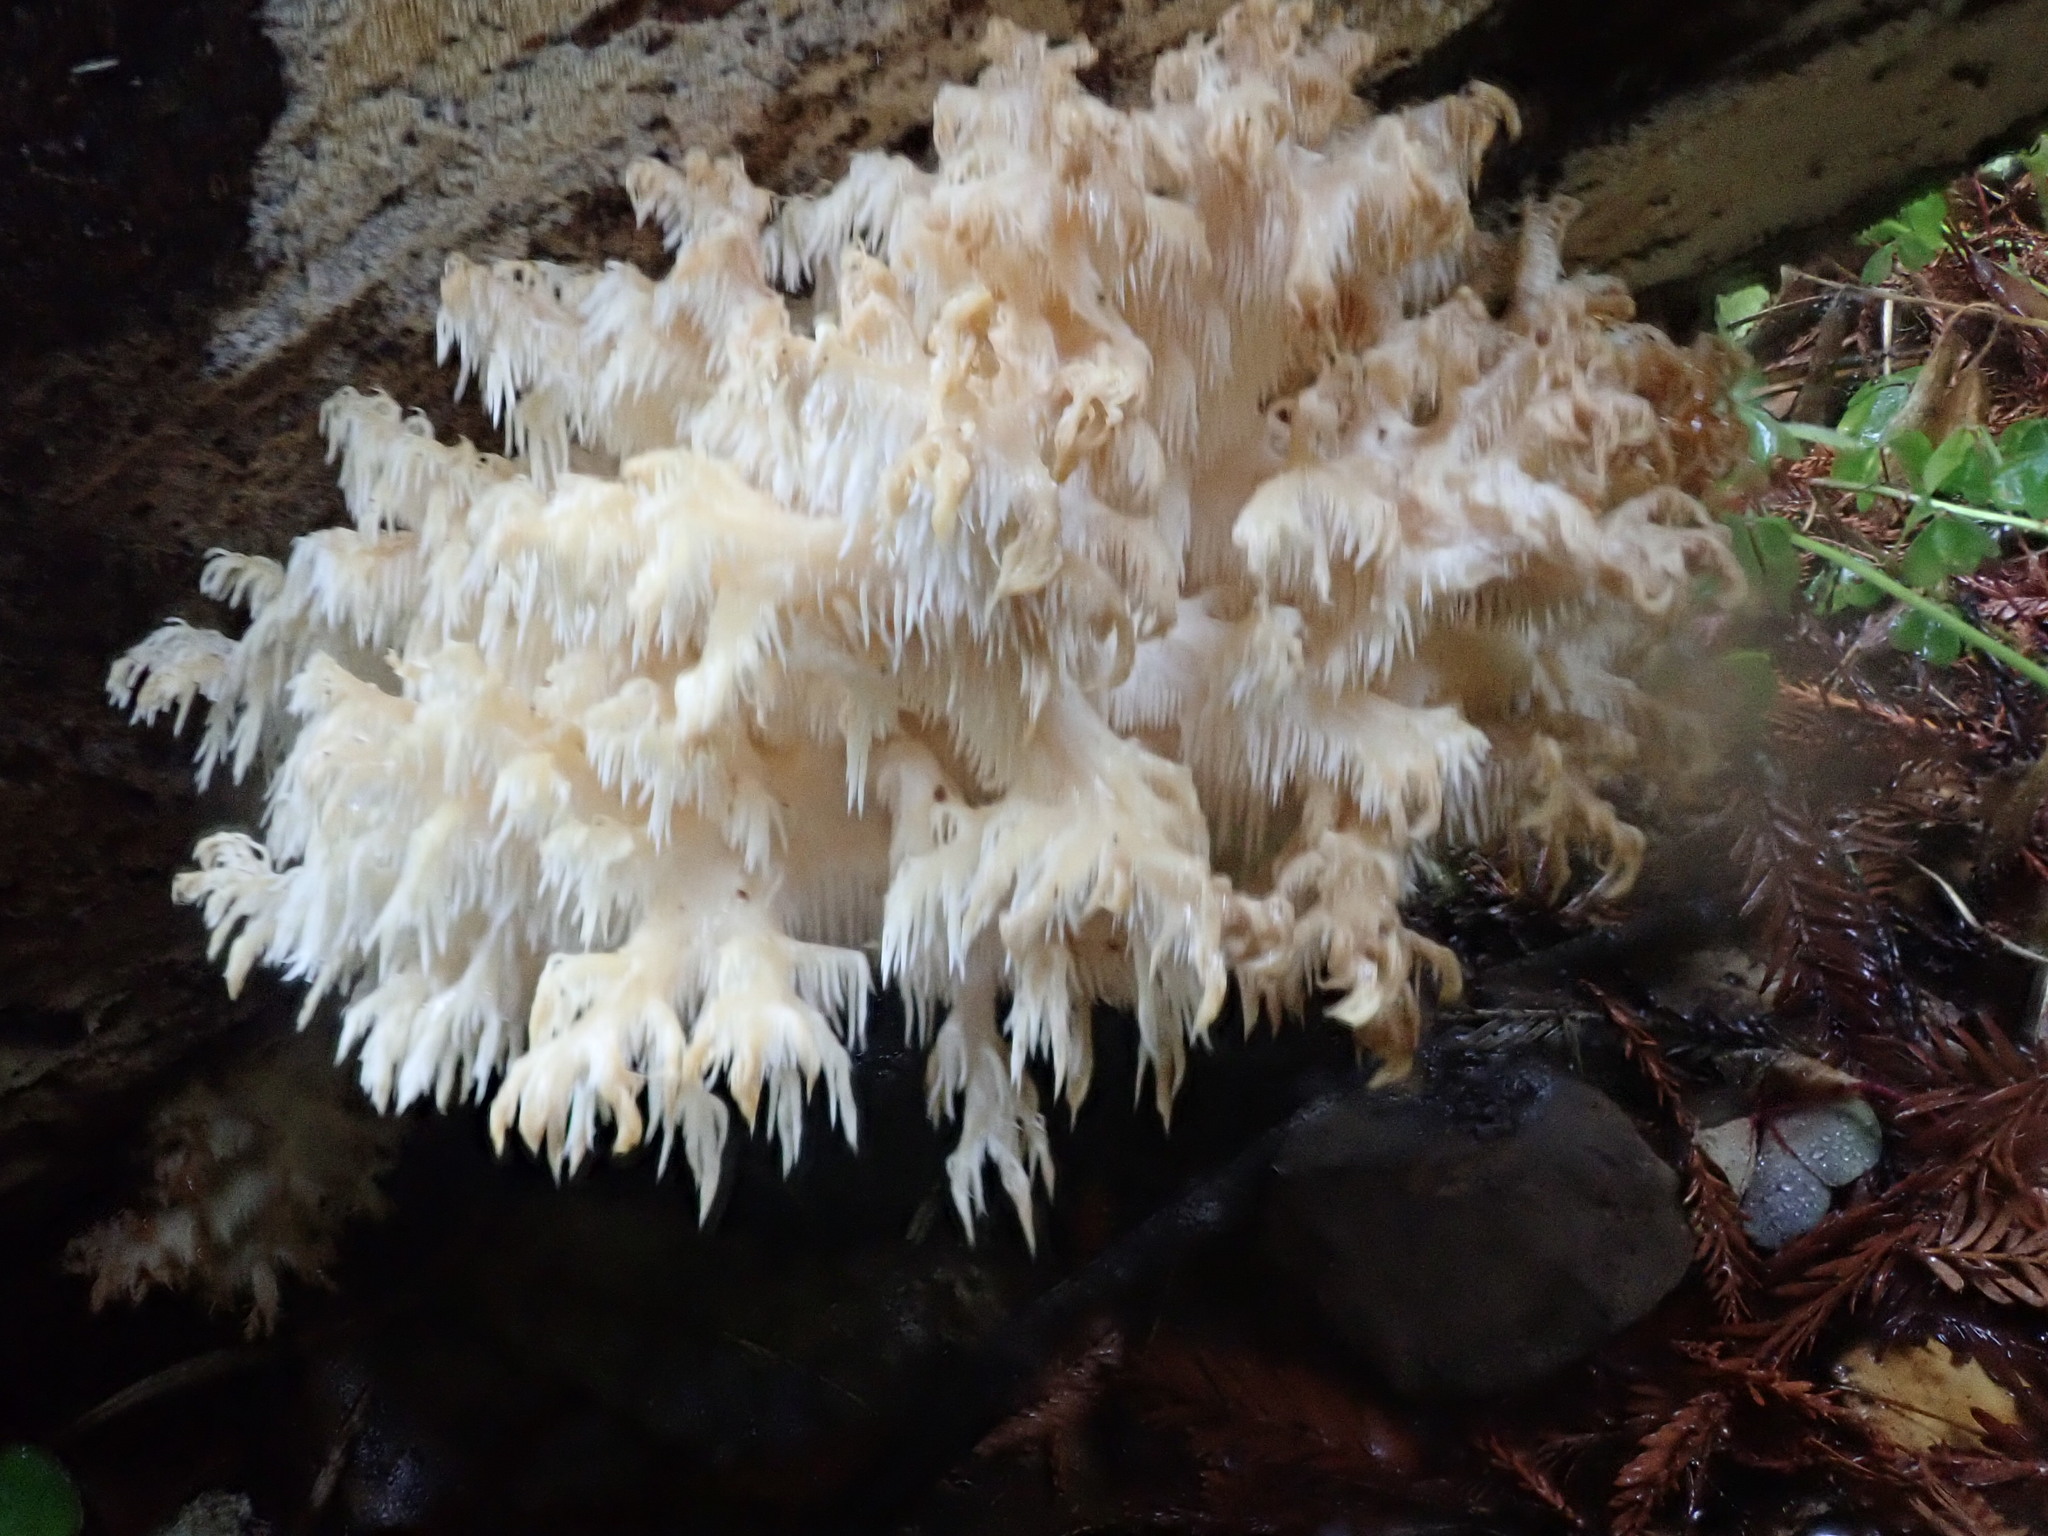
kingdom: Fungi
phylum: Basidiomycota
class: Agaricomycetes
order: Russulales
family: Hericiaceae
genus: Hericium
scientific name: Hericium coralloides
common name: Coral tooth
